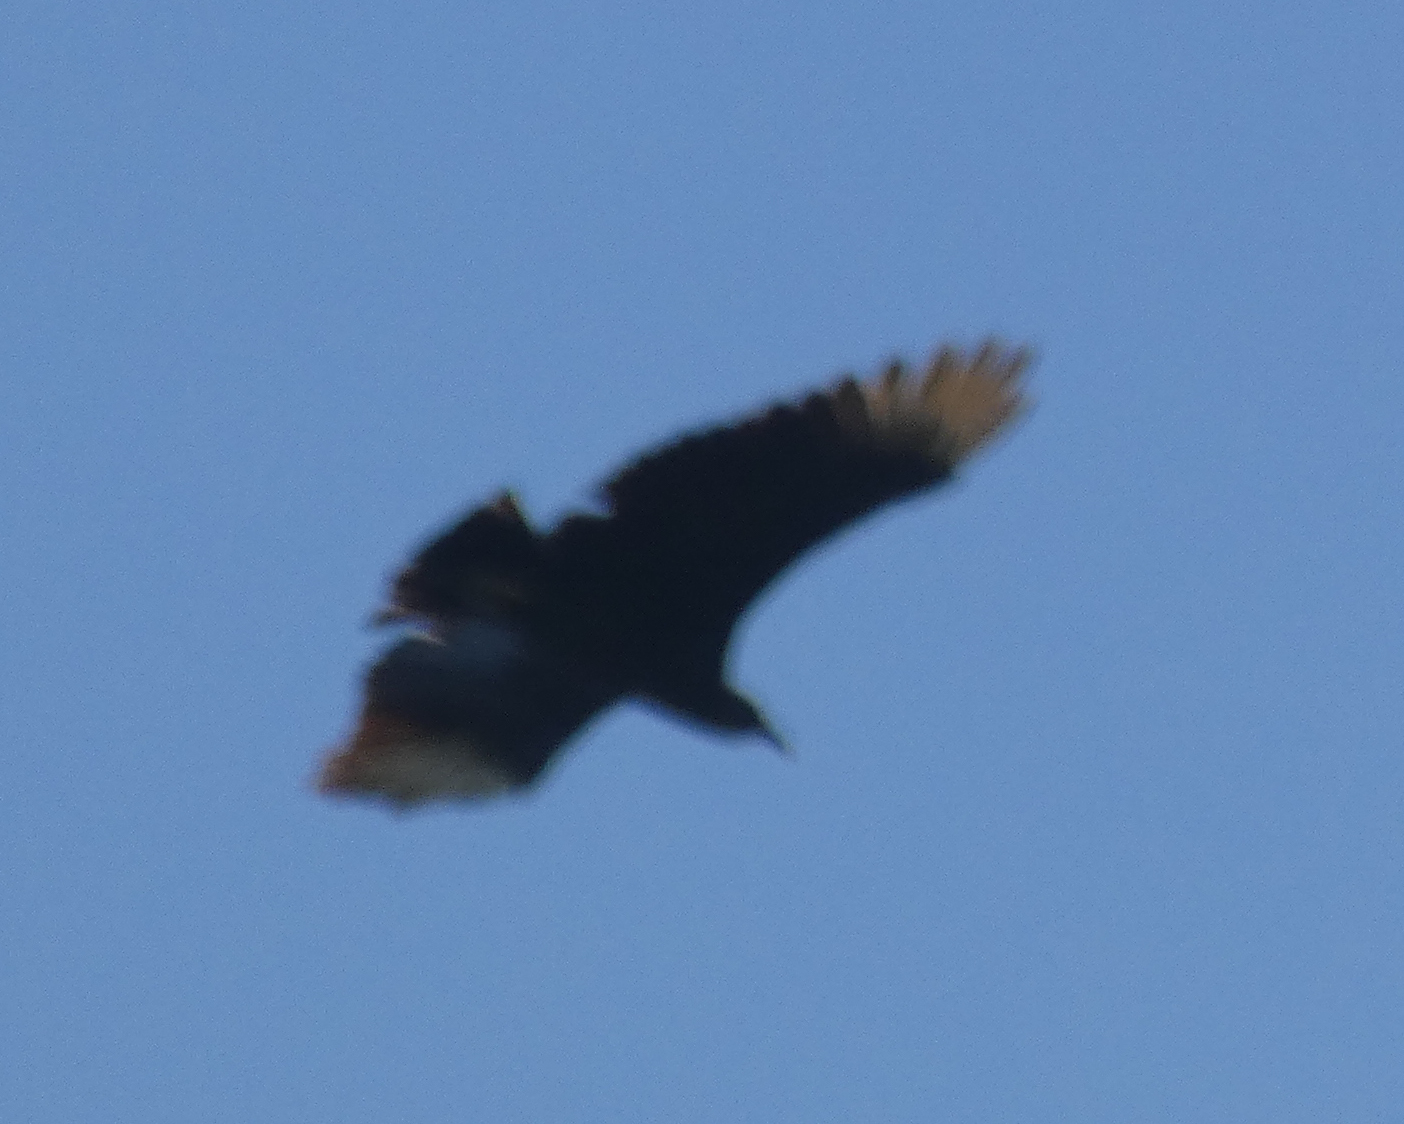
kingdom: Animalia
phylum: Chordata
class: Aves
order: Accipitriformes
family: Cathartidae
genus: Coragyps
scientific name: Coragyps atratus
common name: Black vulture
